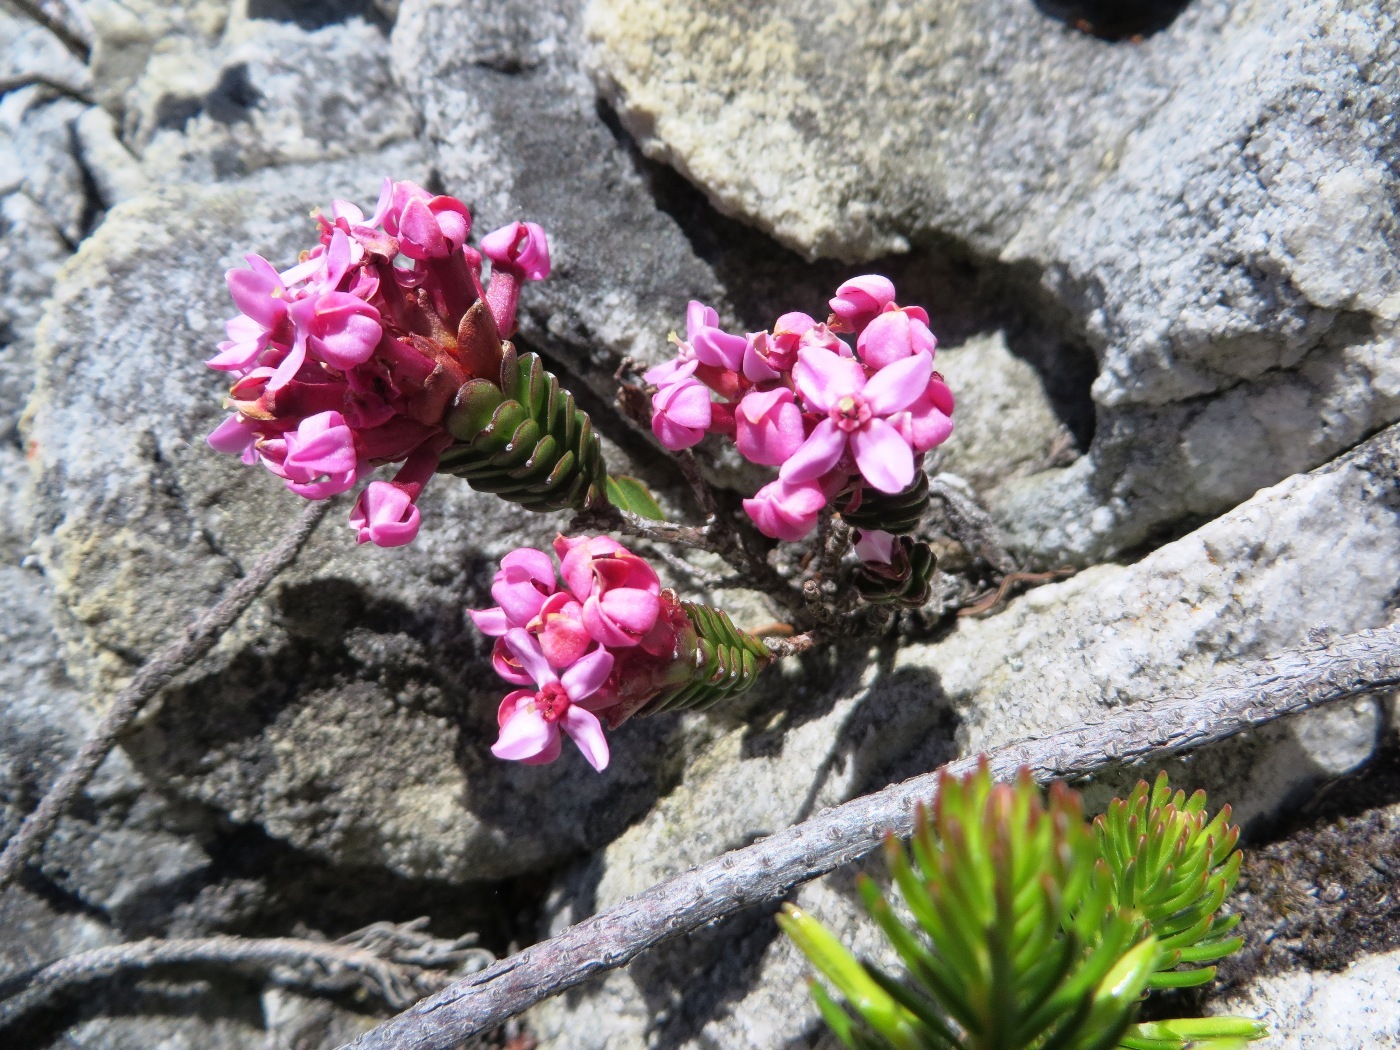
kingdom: Plantae
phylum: Tracheophyta
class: Magnoliopsida
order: Myrtales
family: Penaeaceae
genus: Sonderothamnus
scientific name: Sonderothamnus petraeus
